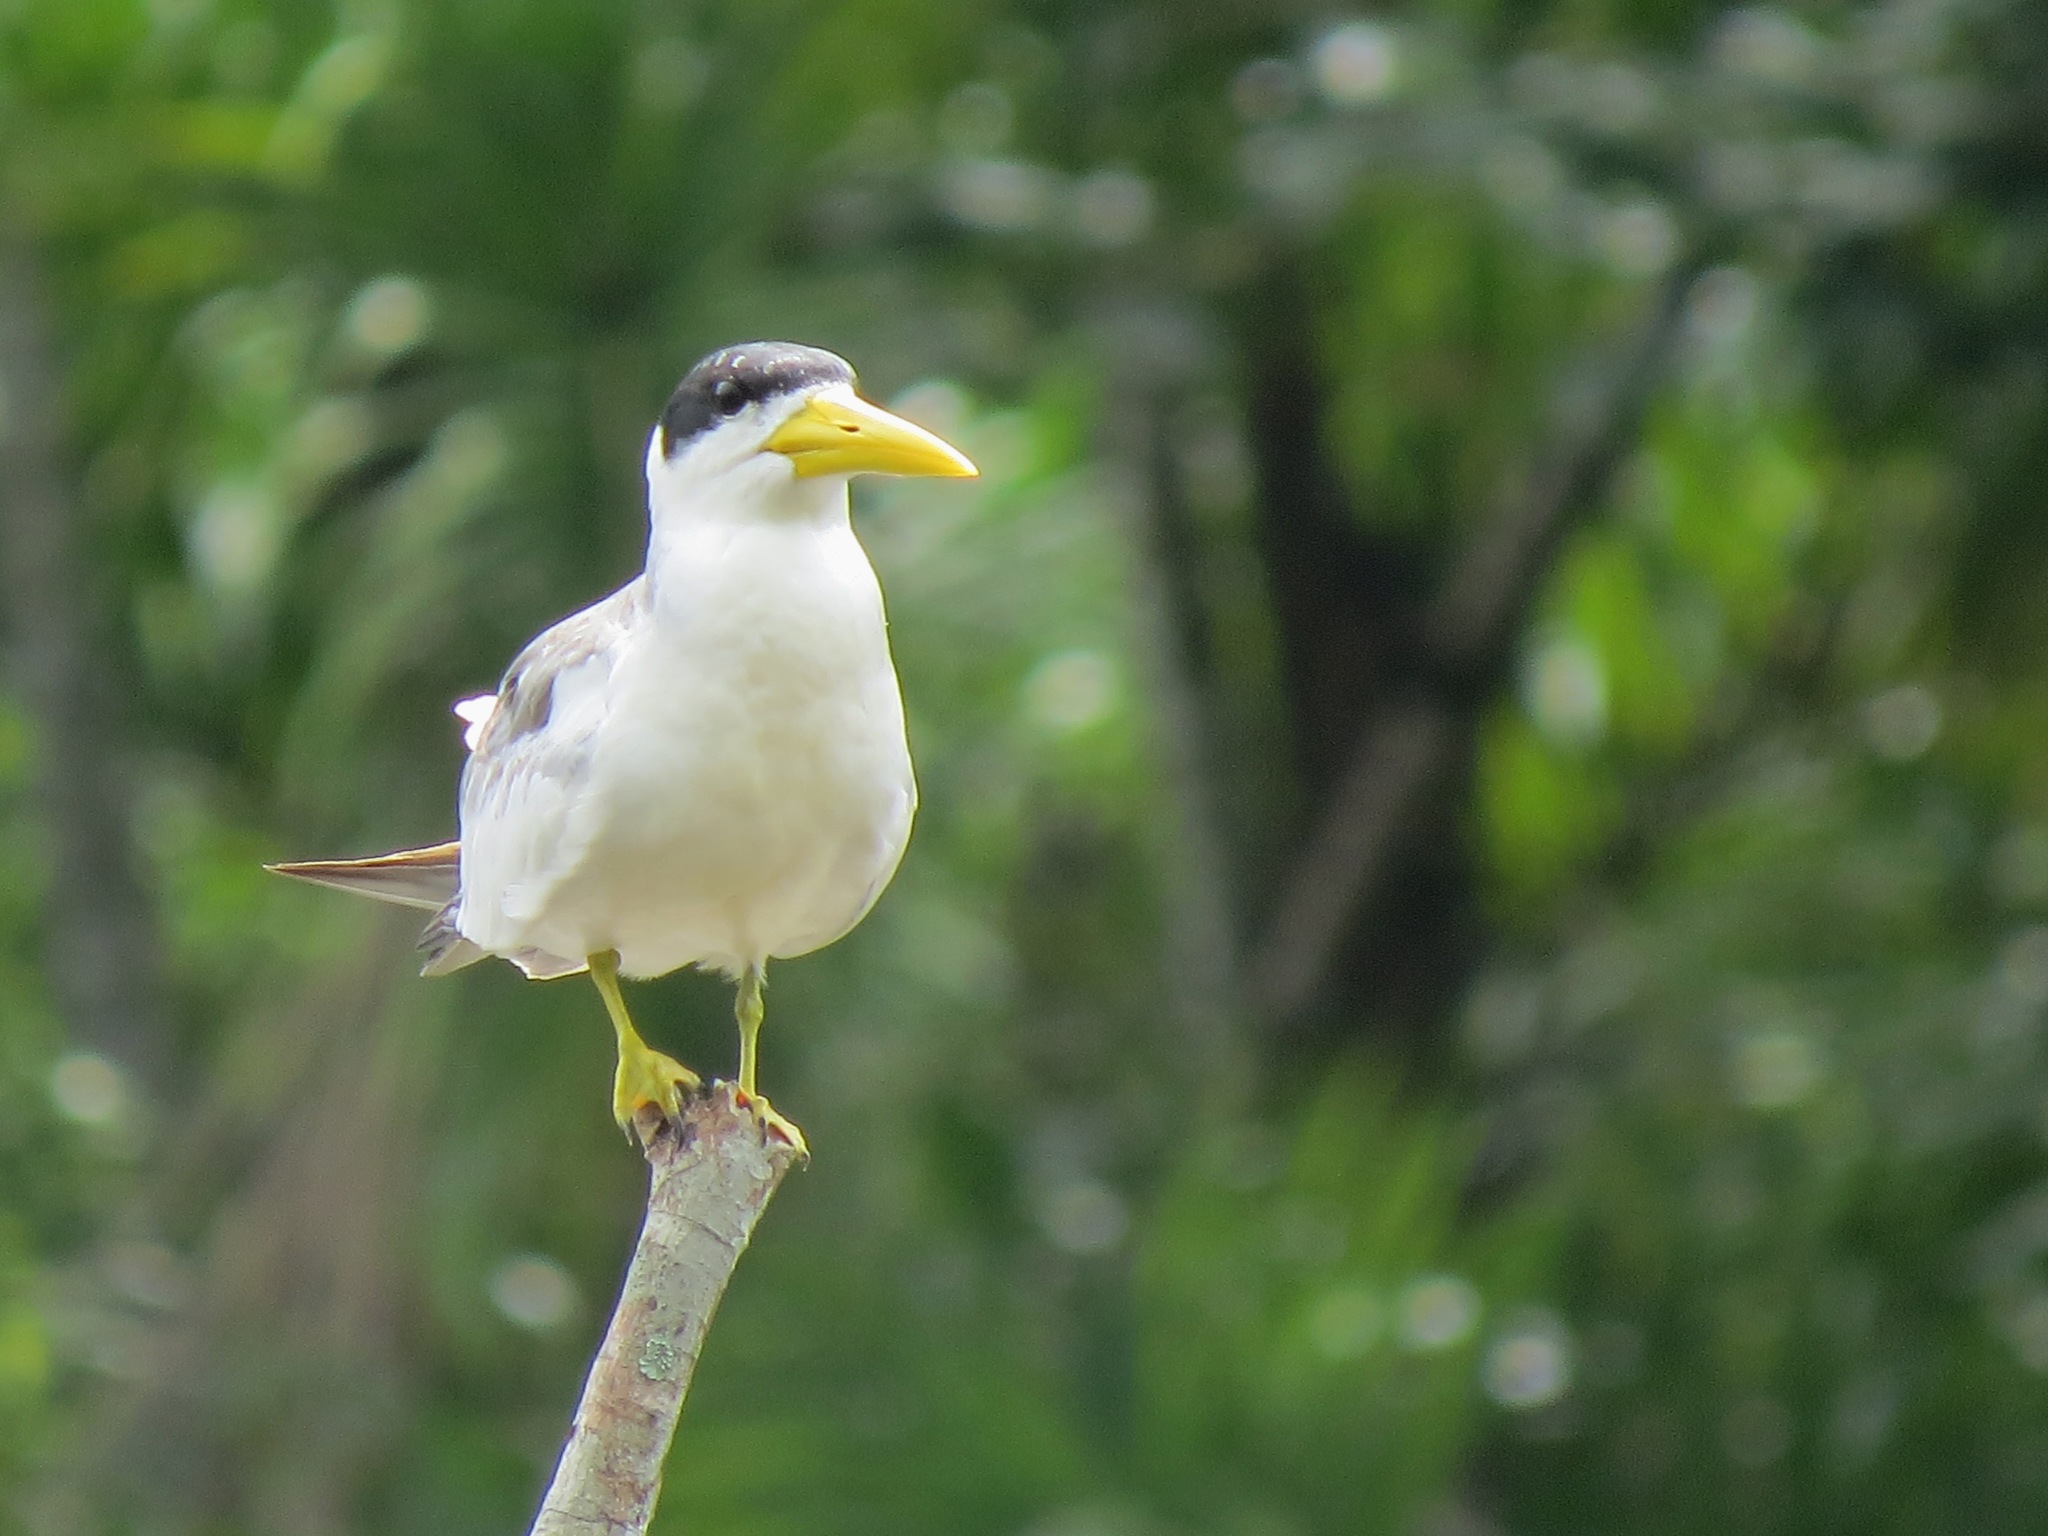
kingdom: Animalia
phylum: Chordata
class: Aves
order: Charadriiformes
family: Laridae
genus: Phaetusa
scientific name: Phaetusa simplex
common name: Large-billed tern
